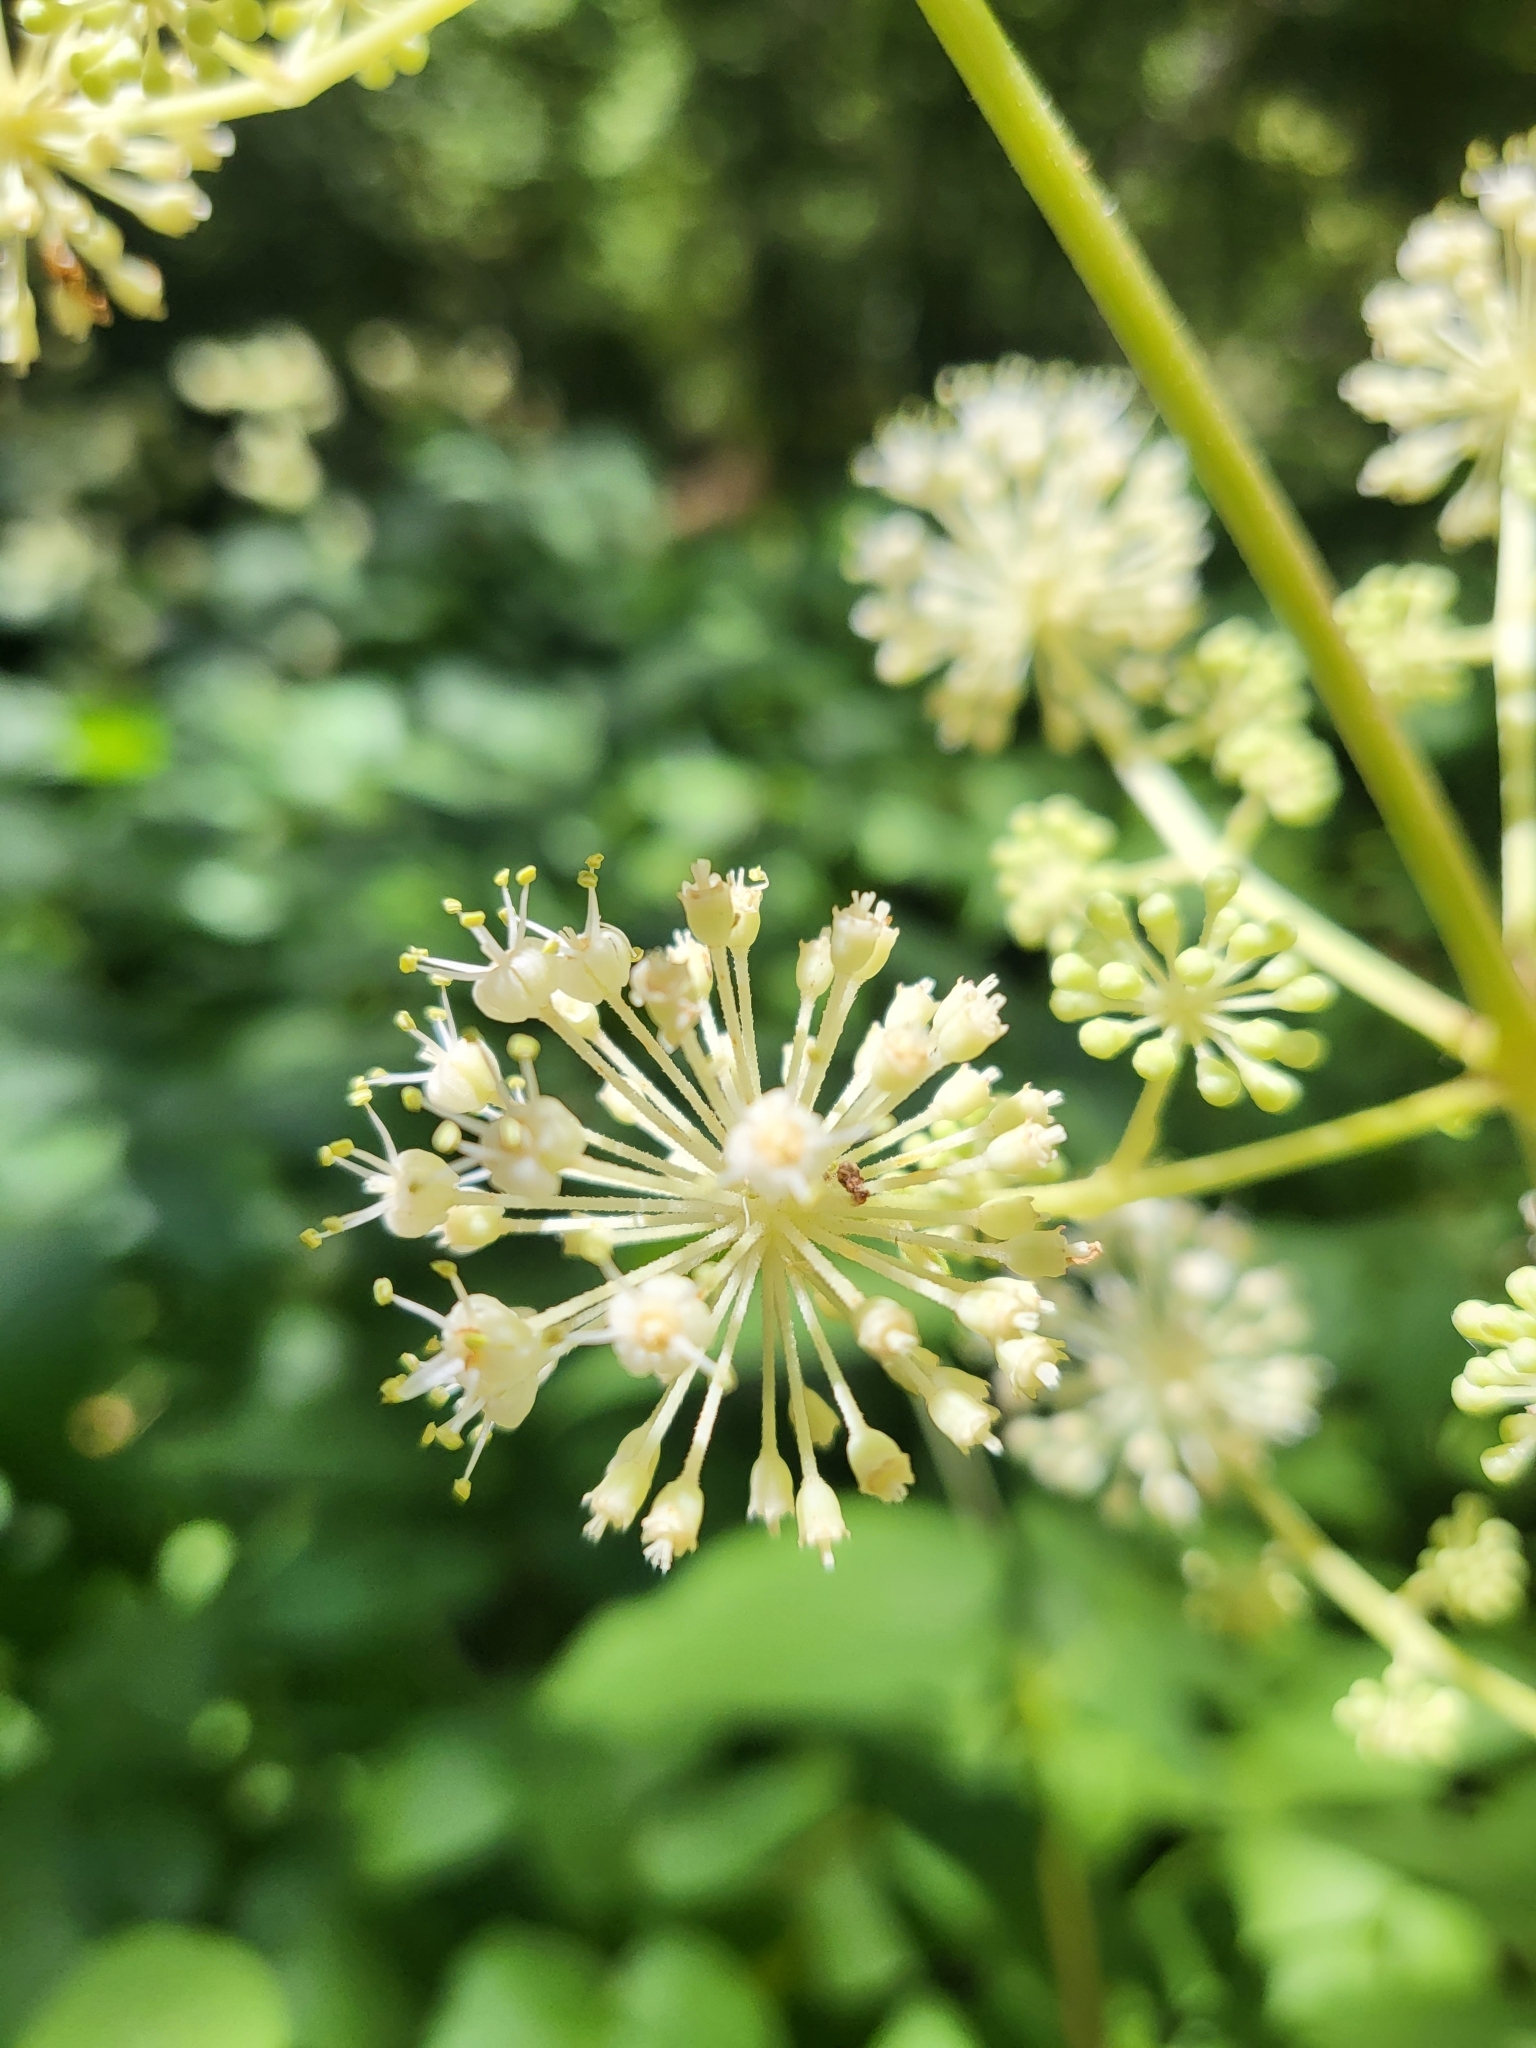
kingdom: Plantae
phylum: Tracheophyta
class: Magnoliopsida
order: Apiales
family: Araliaceae
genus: Aralia
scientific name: Aralia californica
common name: California-ginseng
